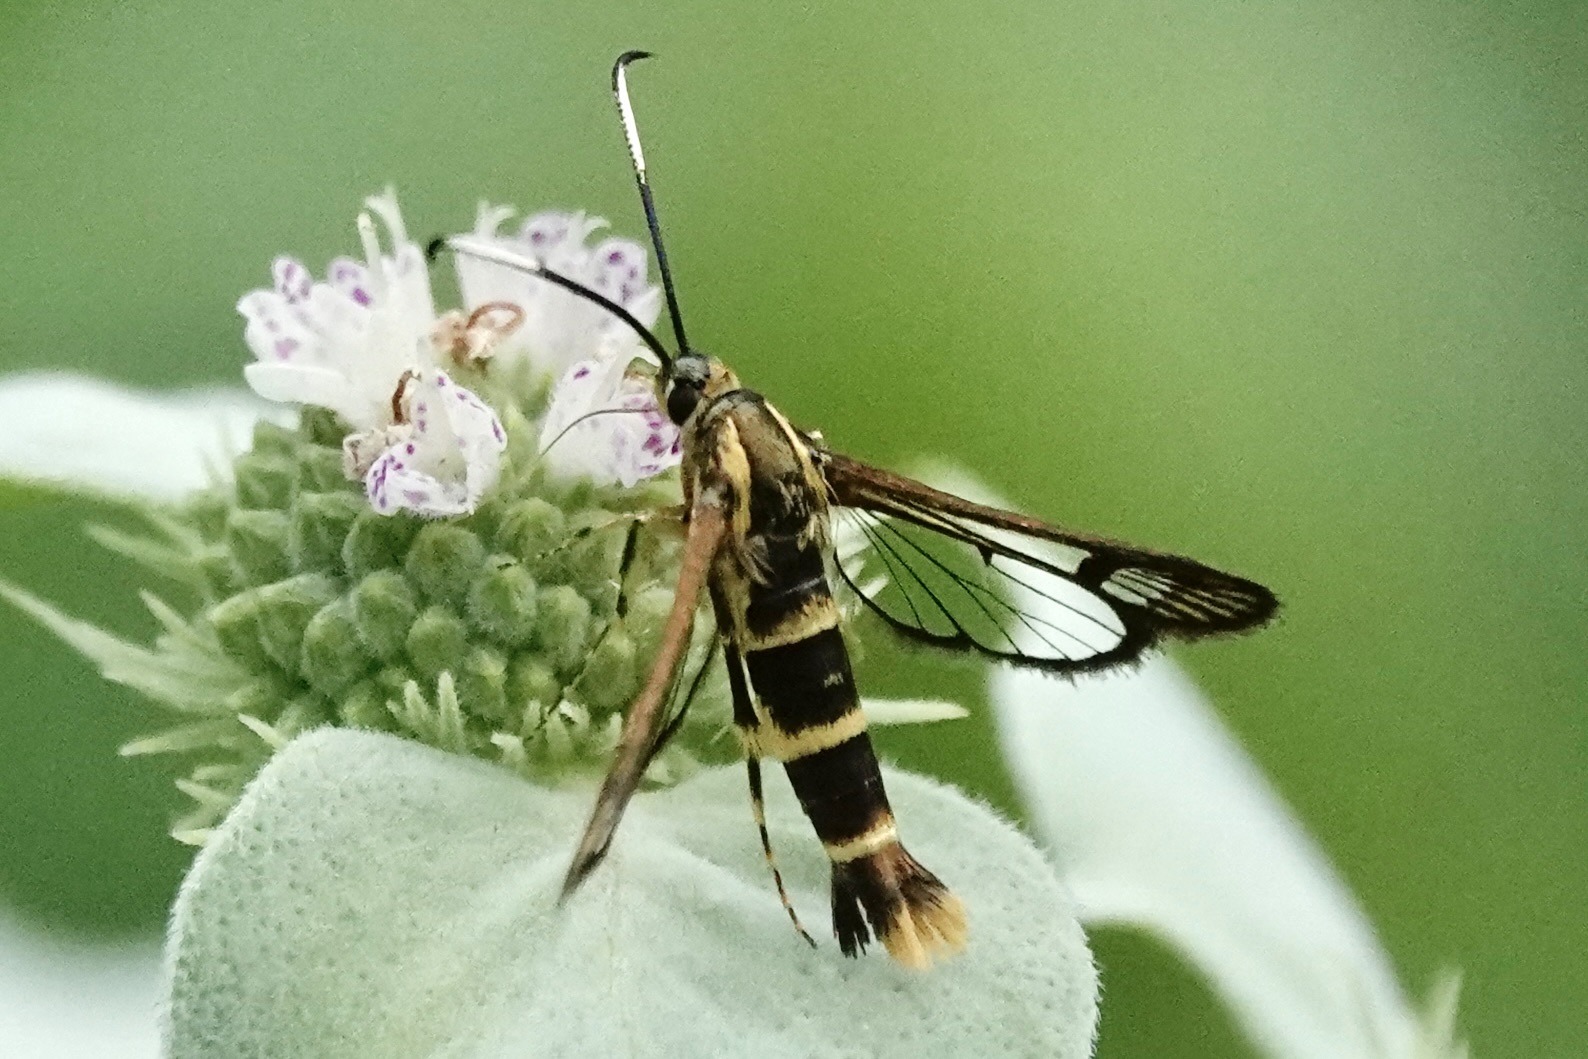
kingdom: Animalia
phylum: Arthropoda
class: Insecta
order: Lepidoptera
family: Sesiidae
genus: Carmenta
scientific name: Carmenta bassiformis
